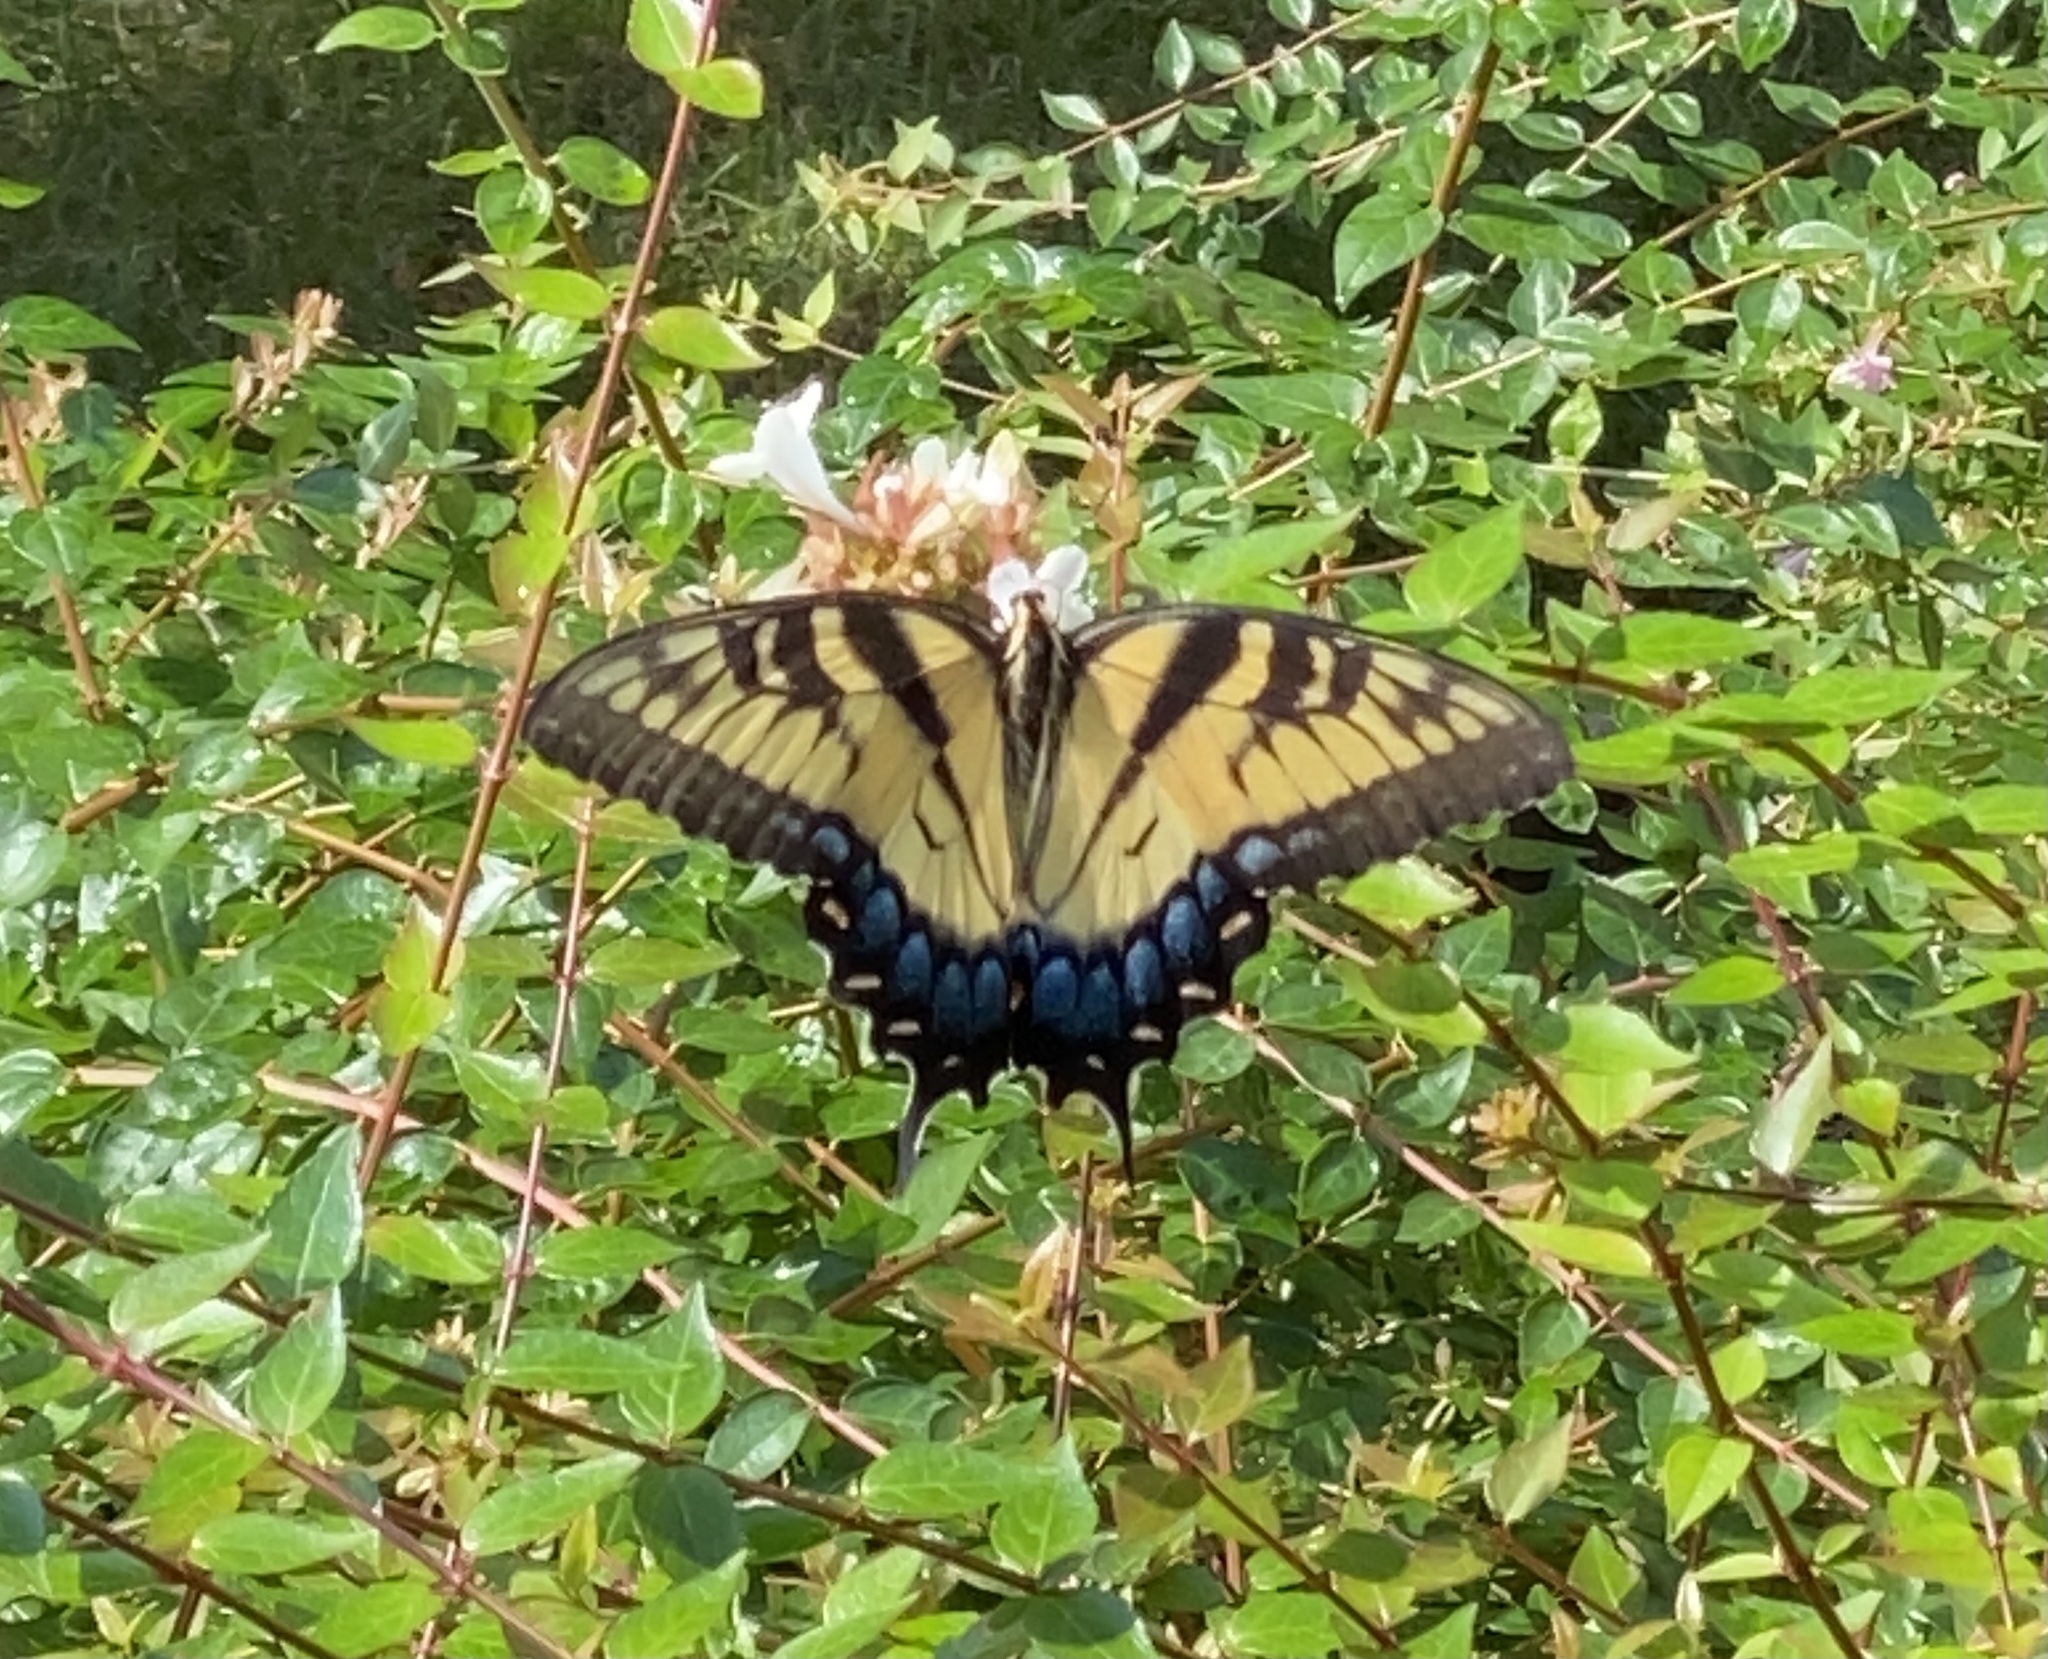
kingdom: Animalia
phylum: Arthropoda
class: Insecta
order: Lepidoptera
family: Papilionidae
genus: Papilio
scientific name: Papilio glaucus
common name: Tiger swallowtail
